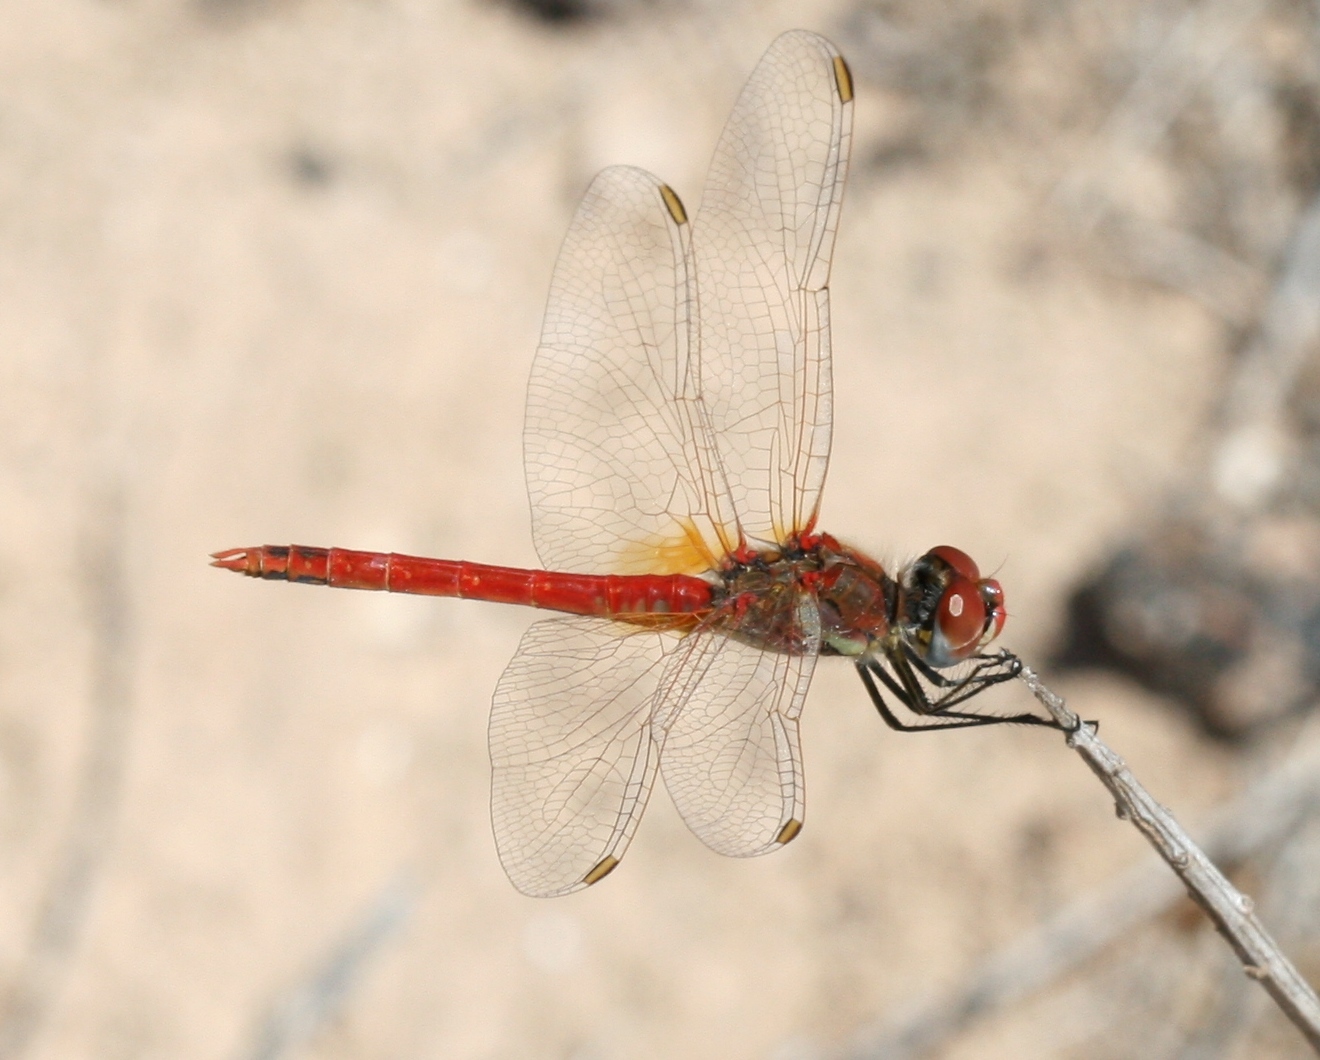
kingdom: Animalia
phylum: Arthropoda
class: Insecta
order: Odonata
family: Libellulidae
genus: Sympetrum
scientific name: Sympetrum fonscolombii
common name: Red-veined darter
